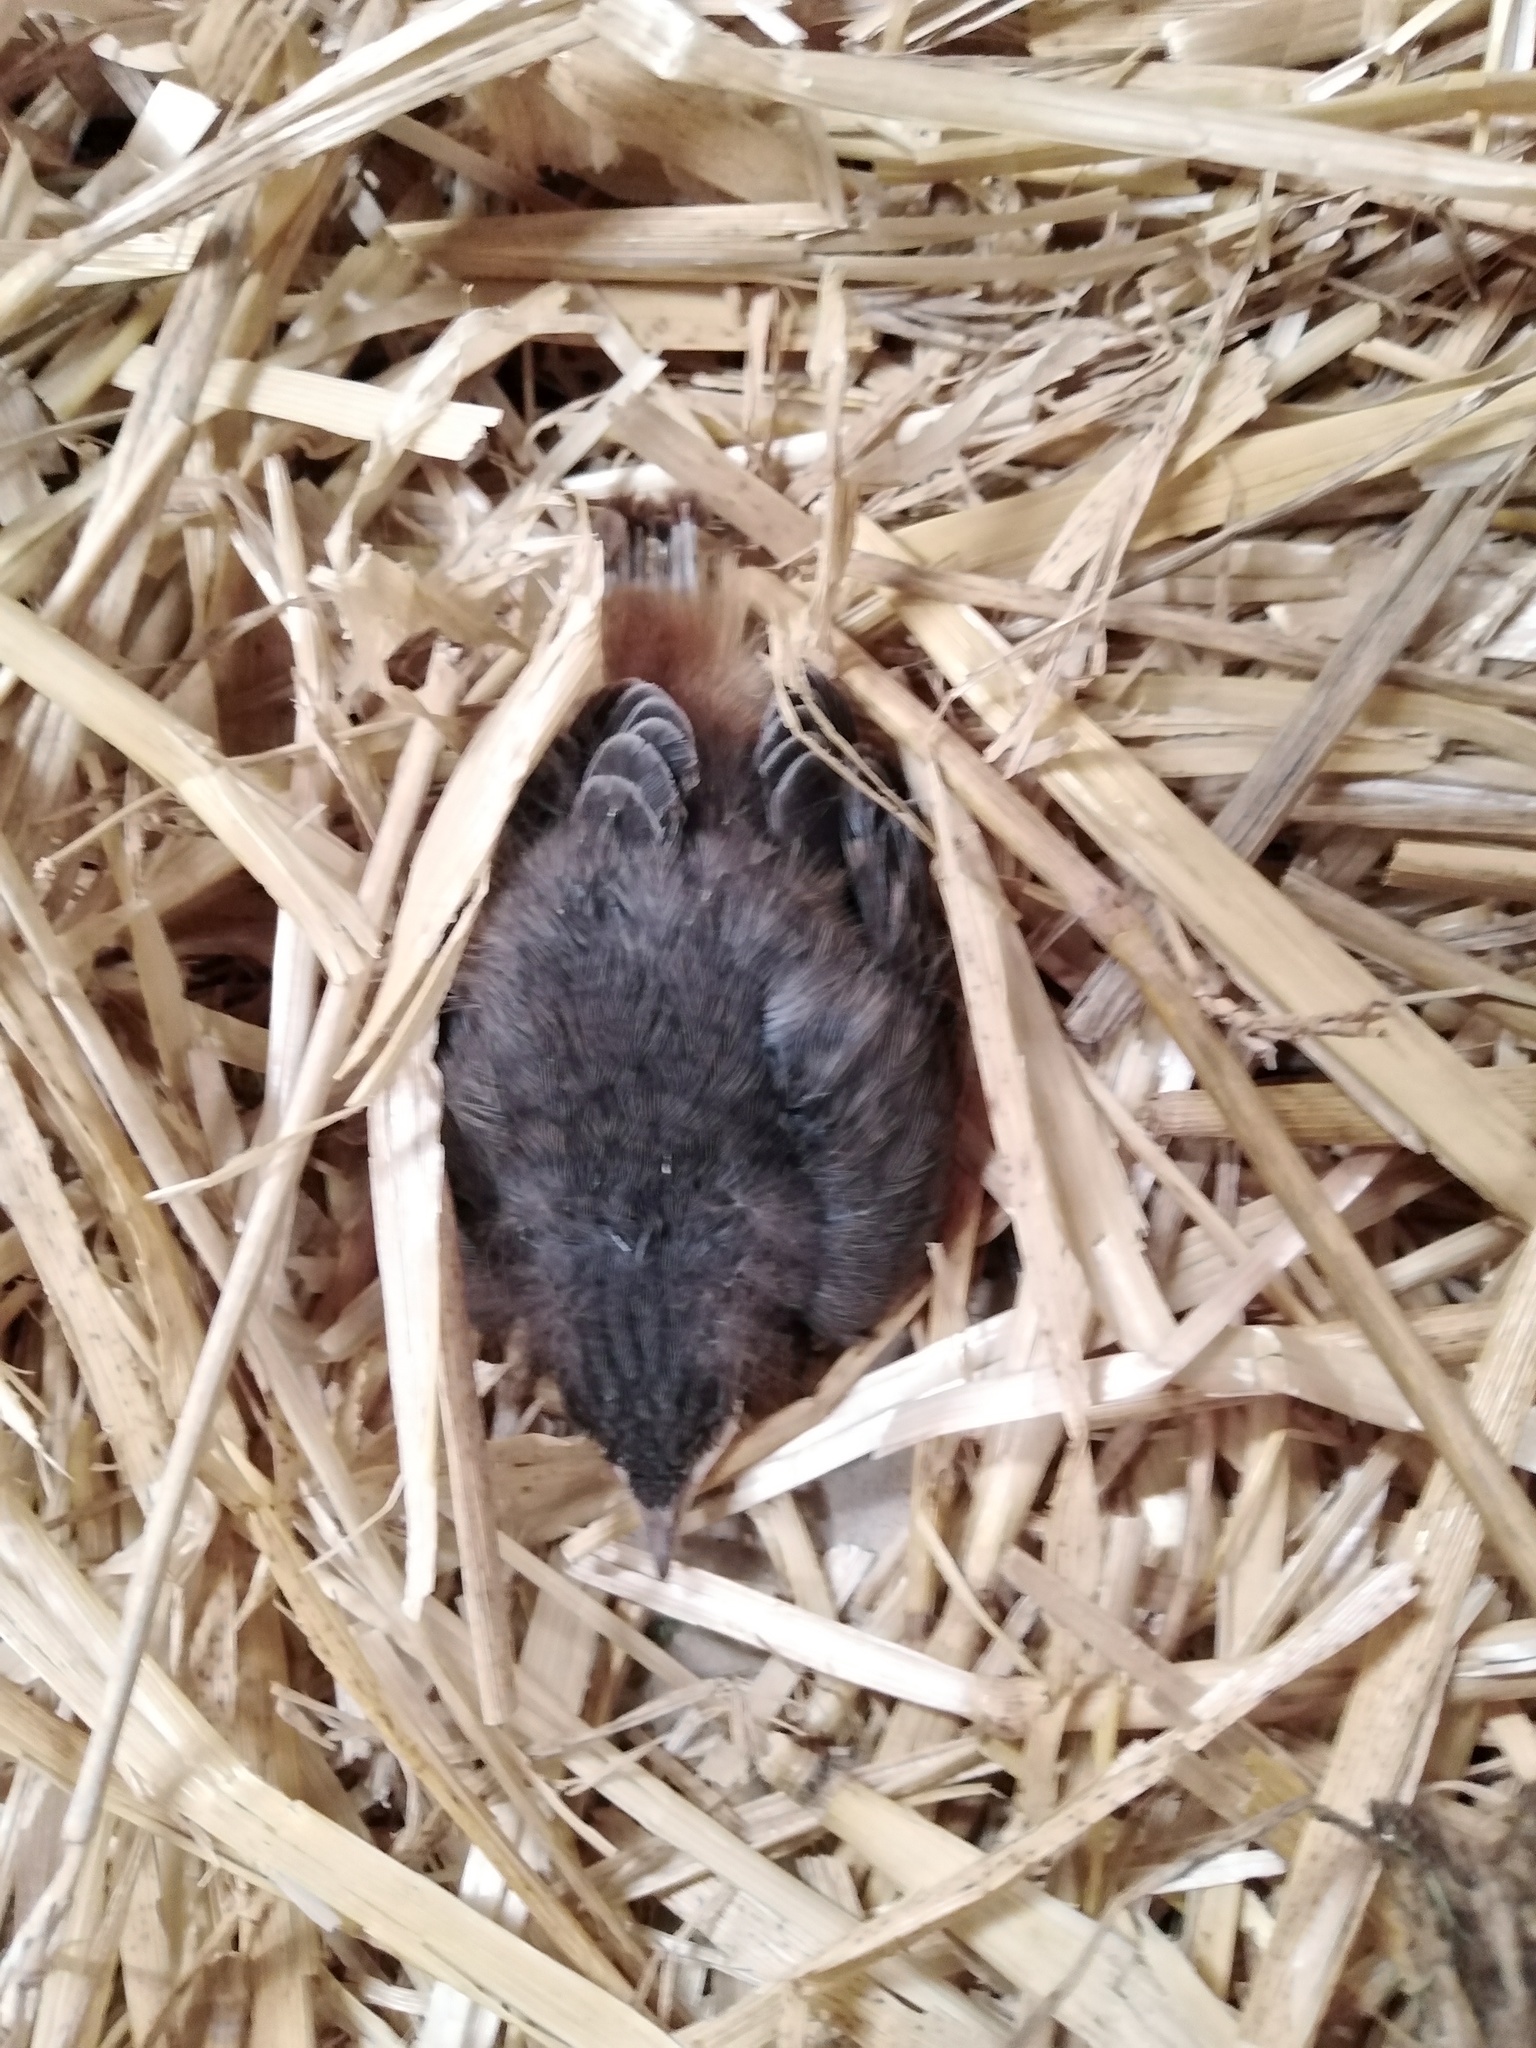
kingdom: Animalia
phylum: Chordata
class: Aves
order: Passeriformes
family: Muscicapidae
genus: Phoenicurus
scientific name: Phoenicurus ochruros
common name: Black redstart
